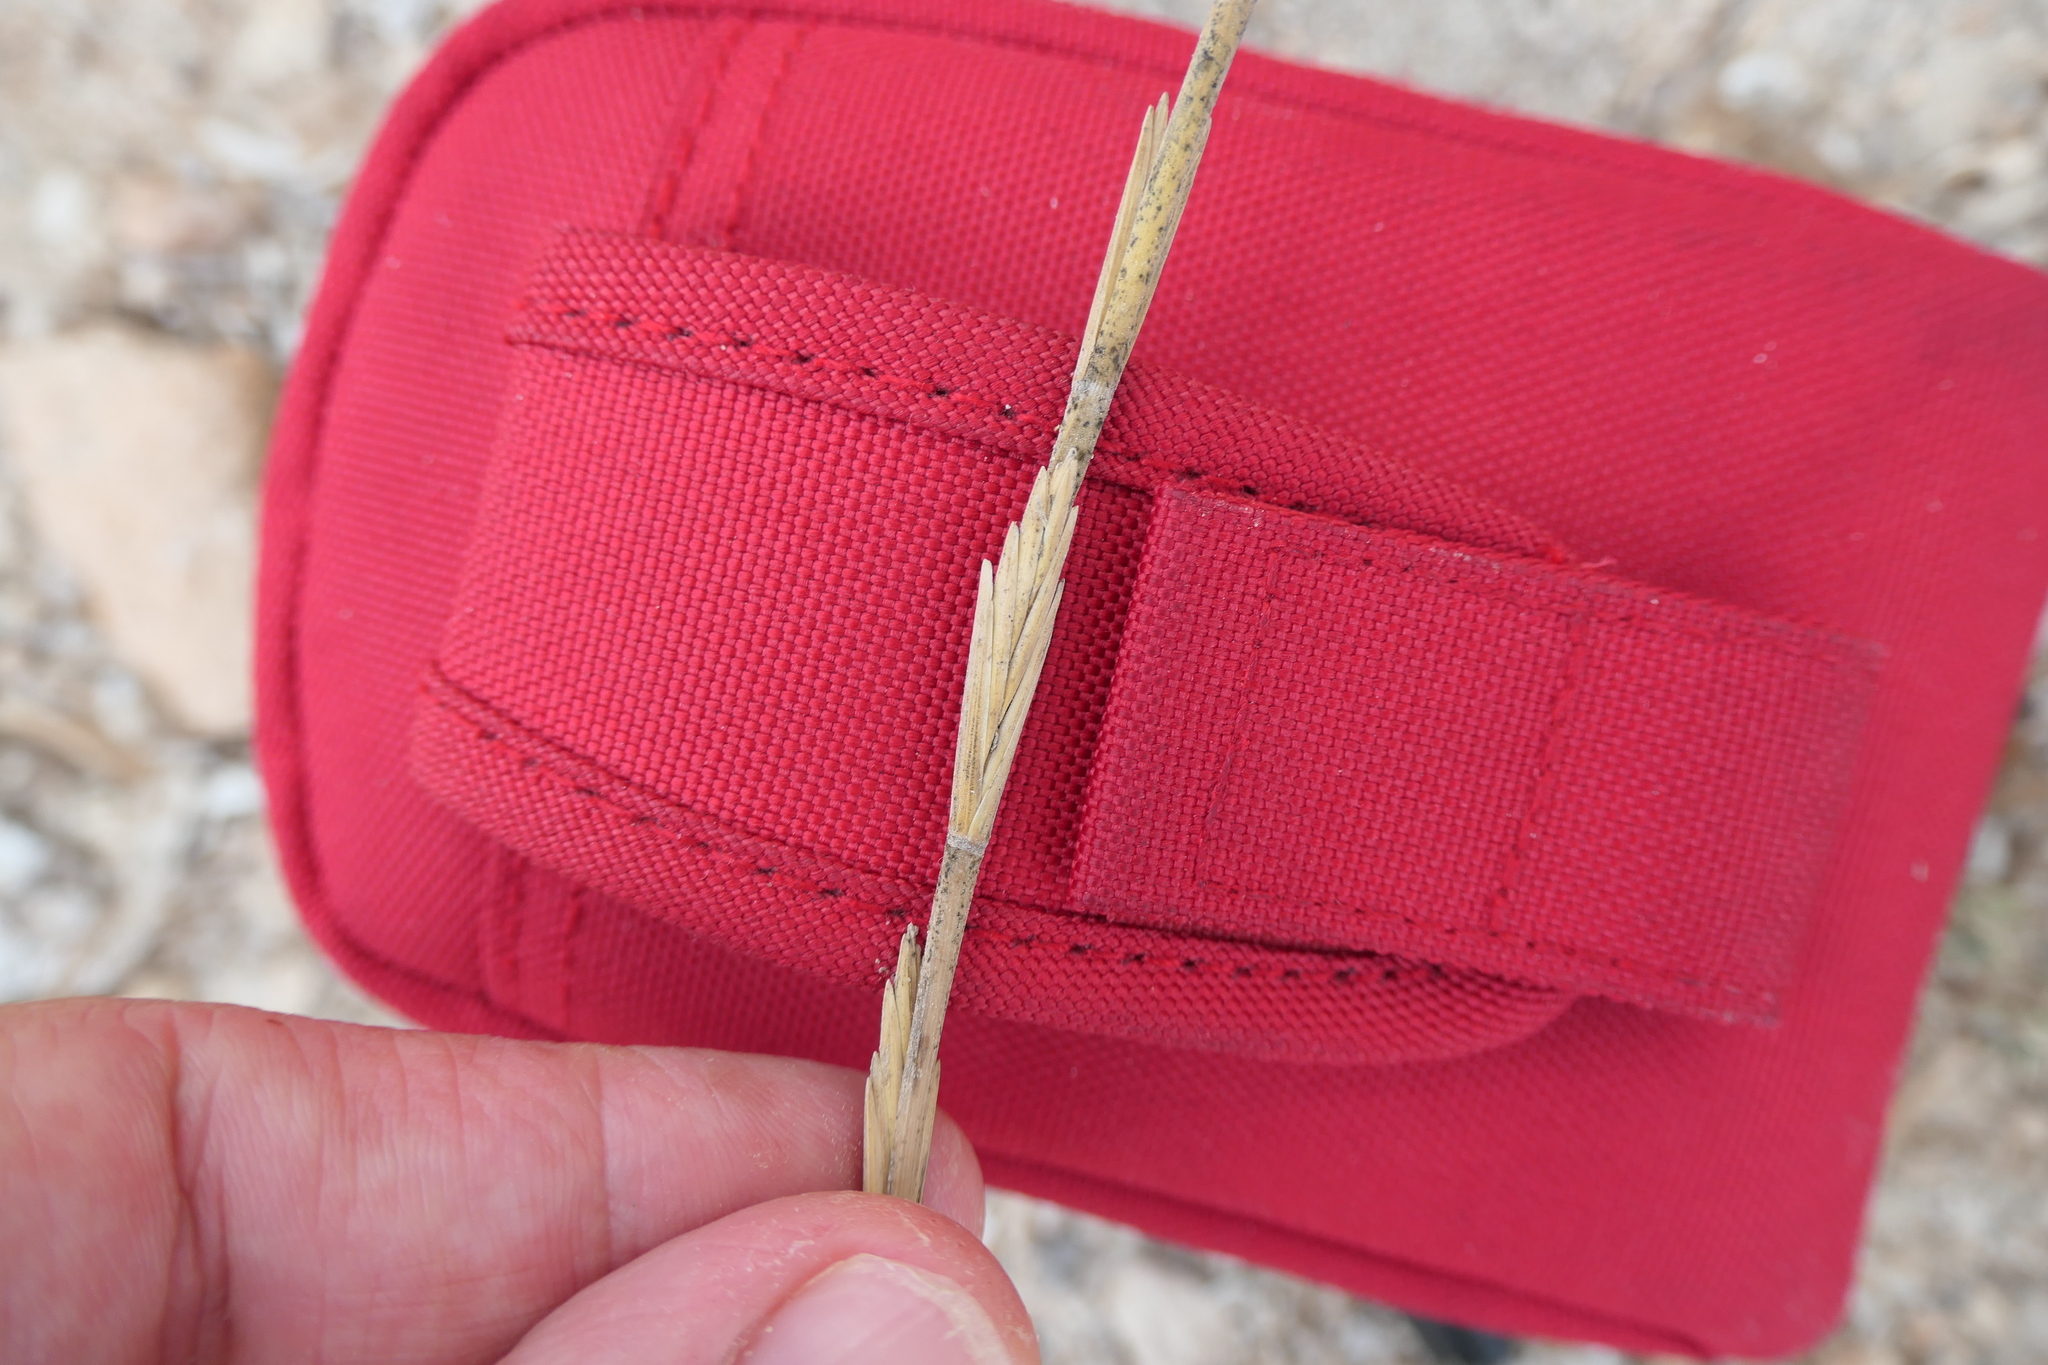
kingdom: Plantae
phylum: Tracheophyta
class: Liliopsida
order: Poales
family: Poaceae
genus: Thinopyrum
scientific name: Thinopyrum junceum
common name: Russian wheatgrass
